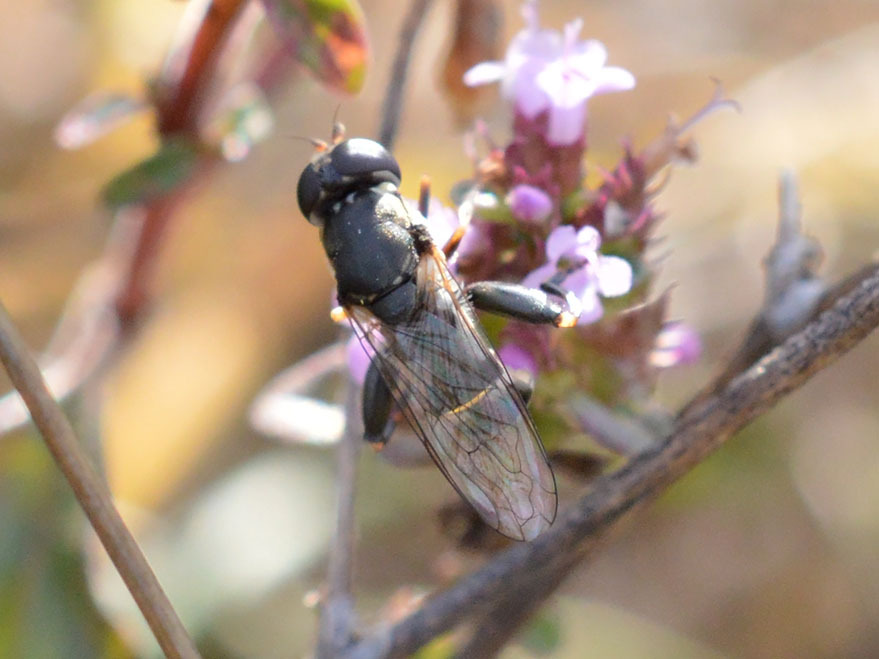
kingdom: Animalia
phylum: Arthropoda
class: Insecta
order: Diptera
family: Syrphidae
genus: Syritta
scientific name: Syritta pipiens
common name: Hover fly
